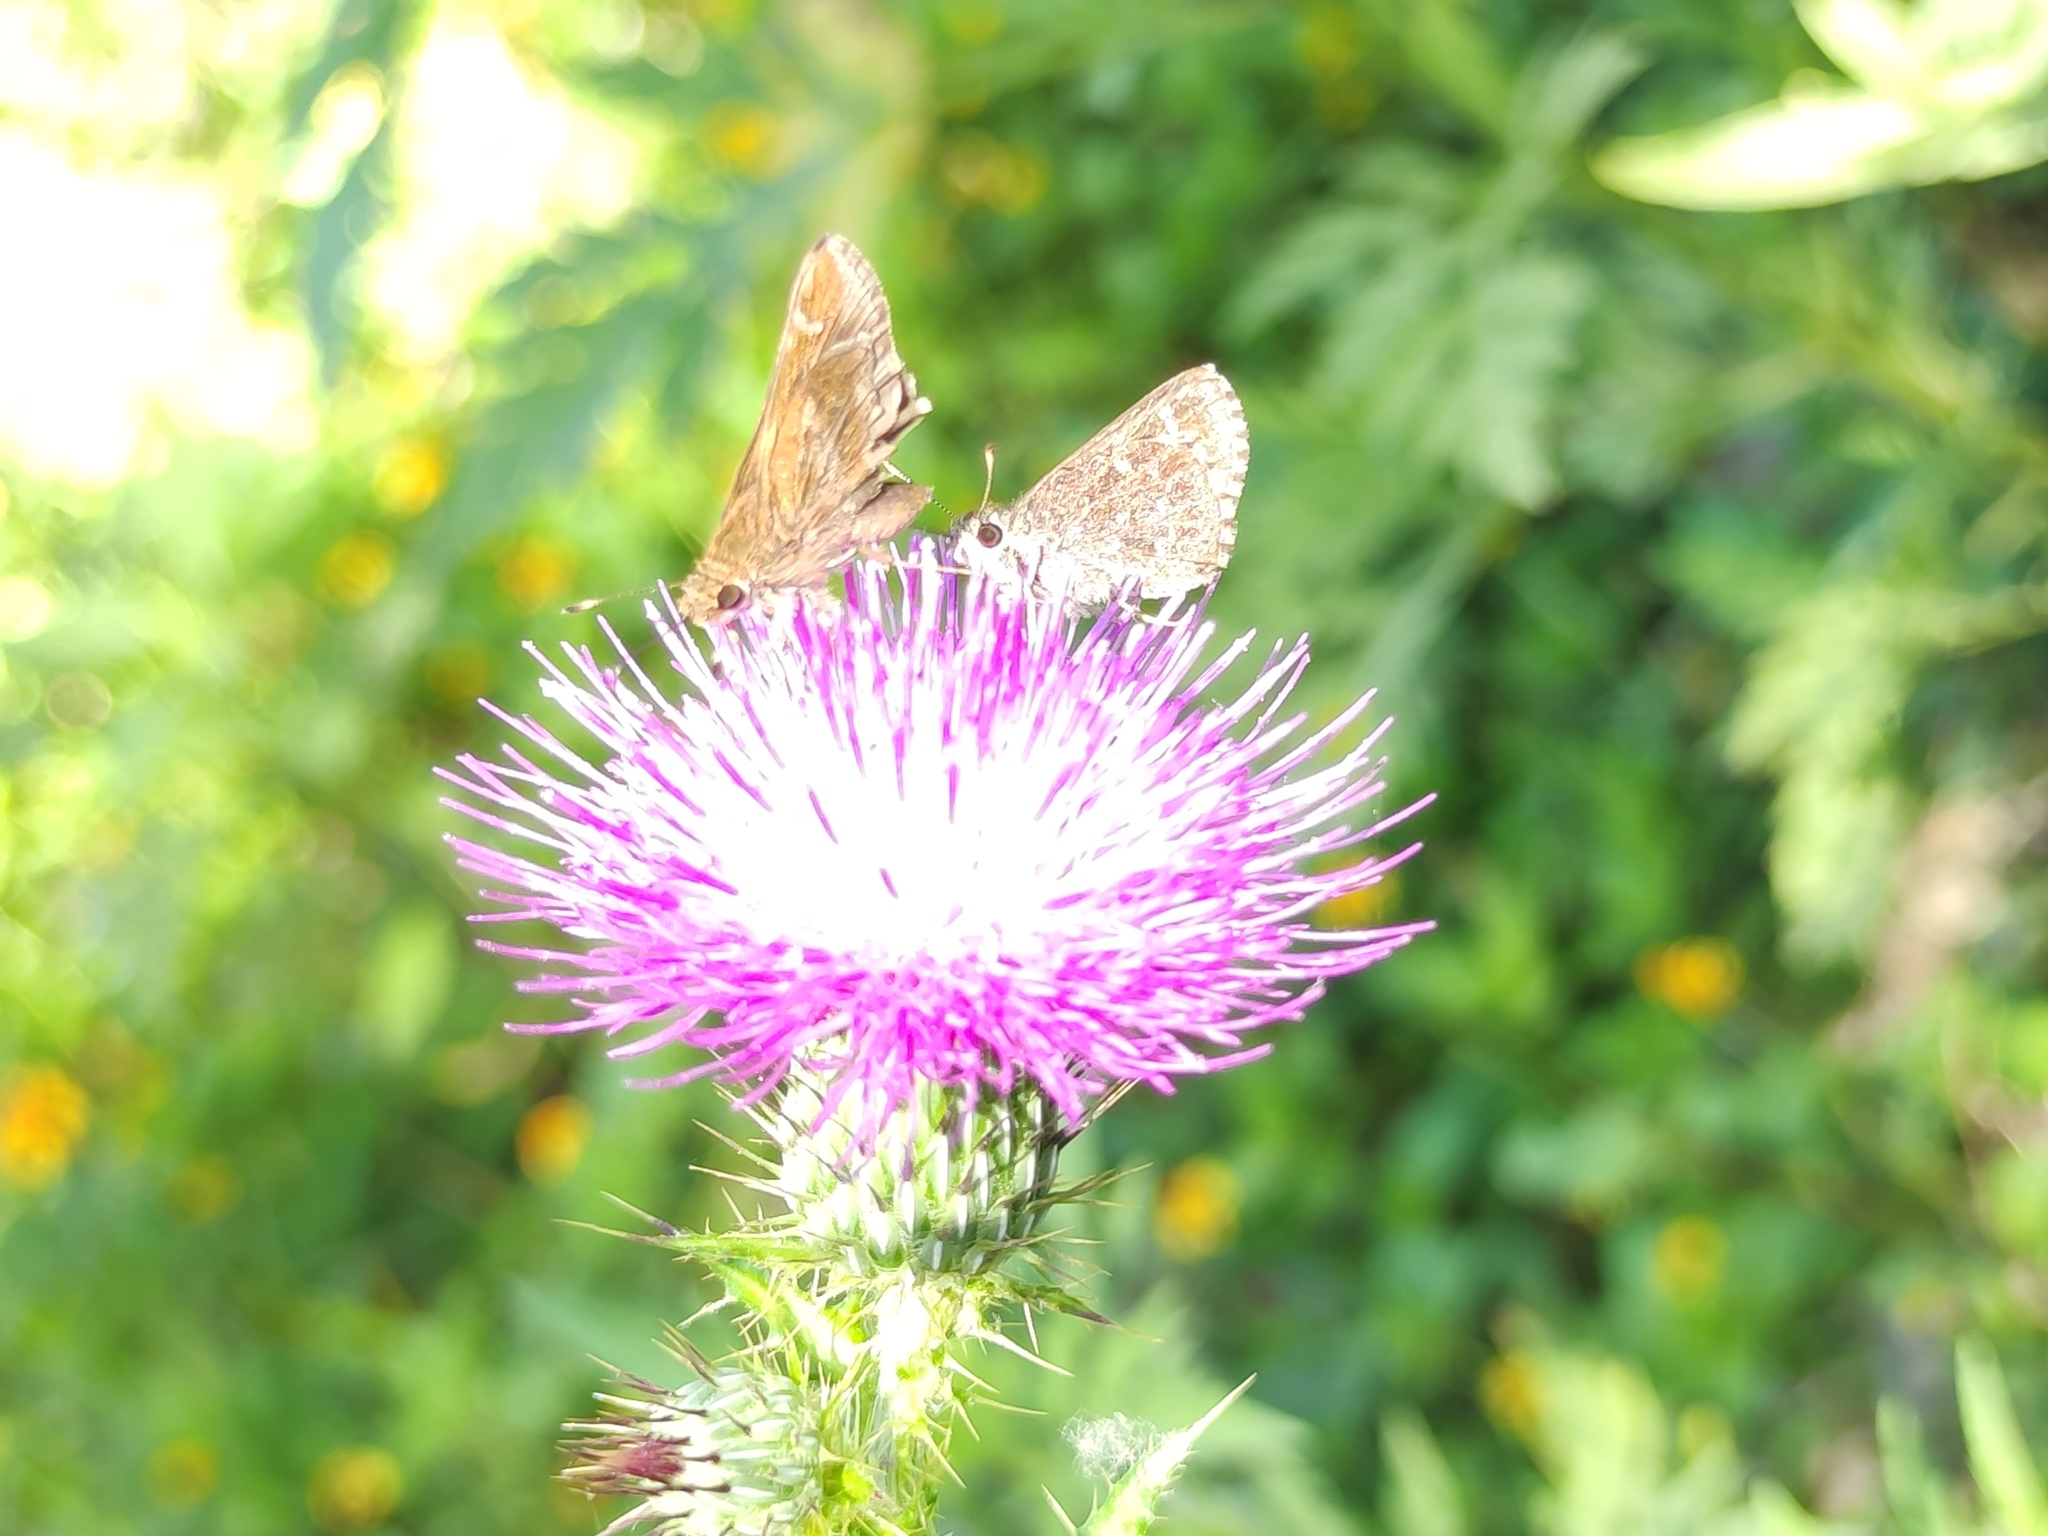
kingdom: Animalia
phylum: Arthropoda
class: Insecta
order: Lepidoptera
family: Hesperiidae
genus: Mastor
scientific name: Mastor celia
